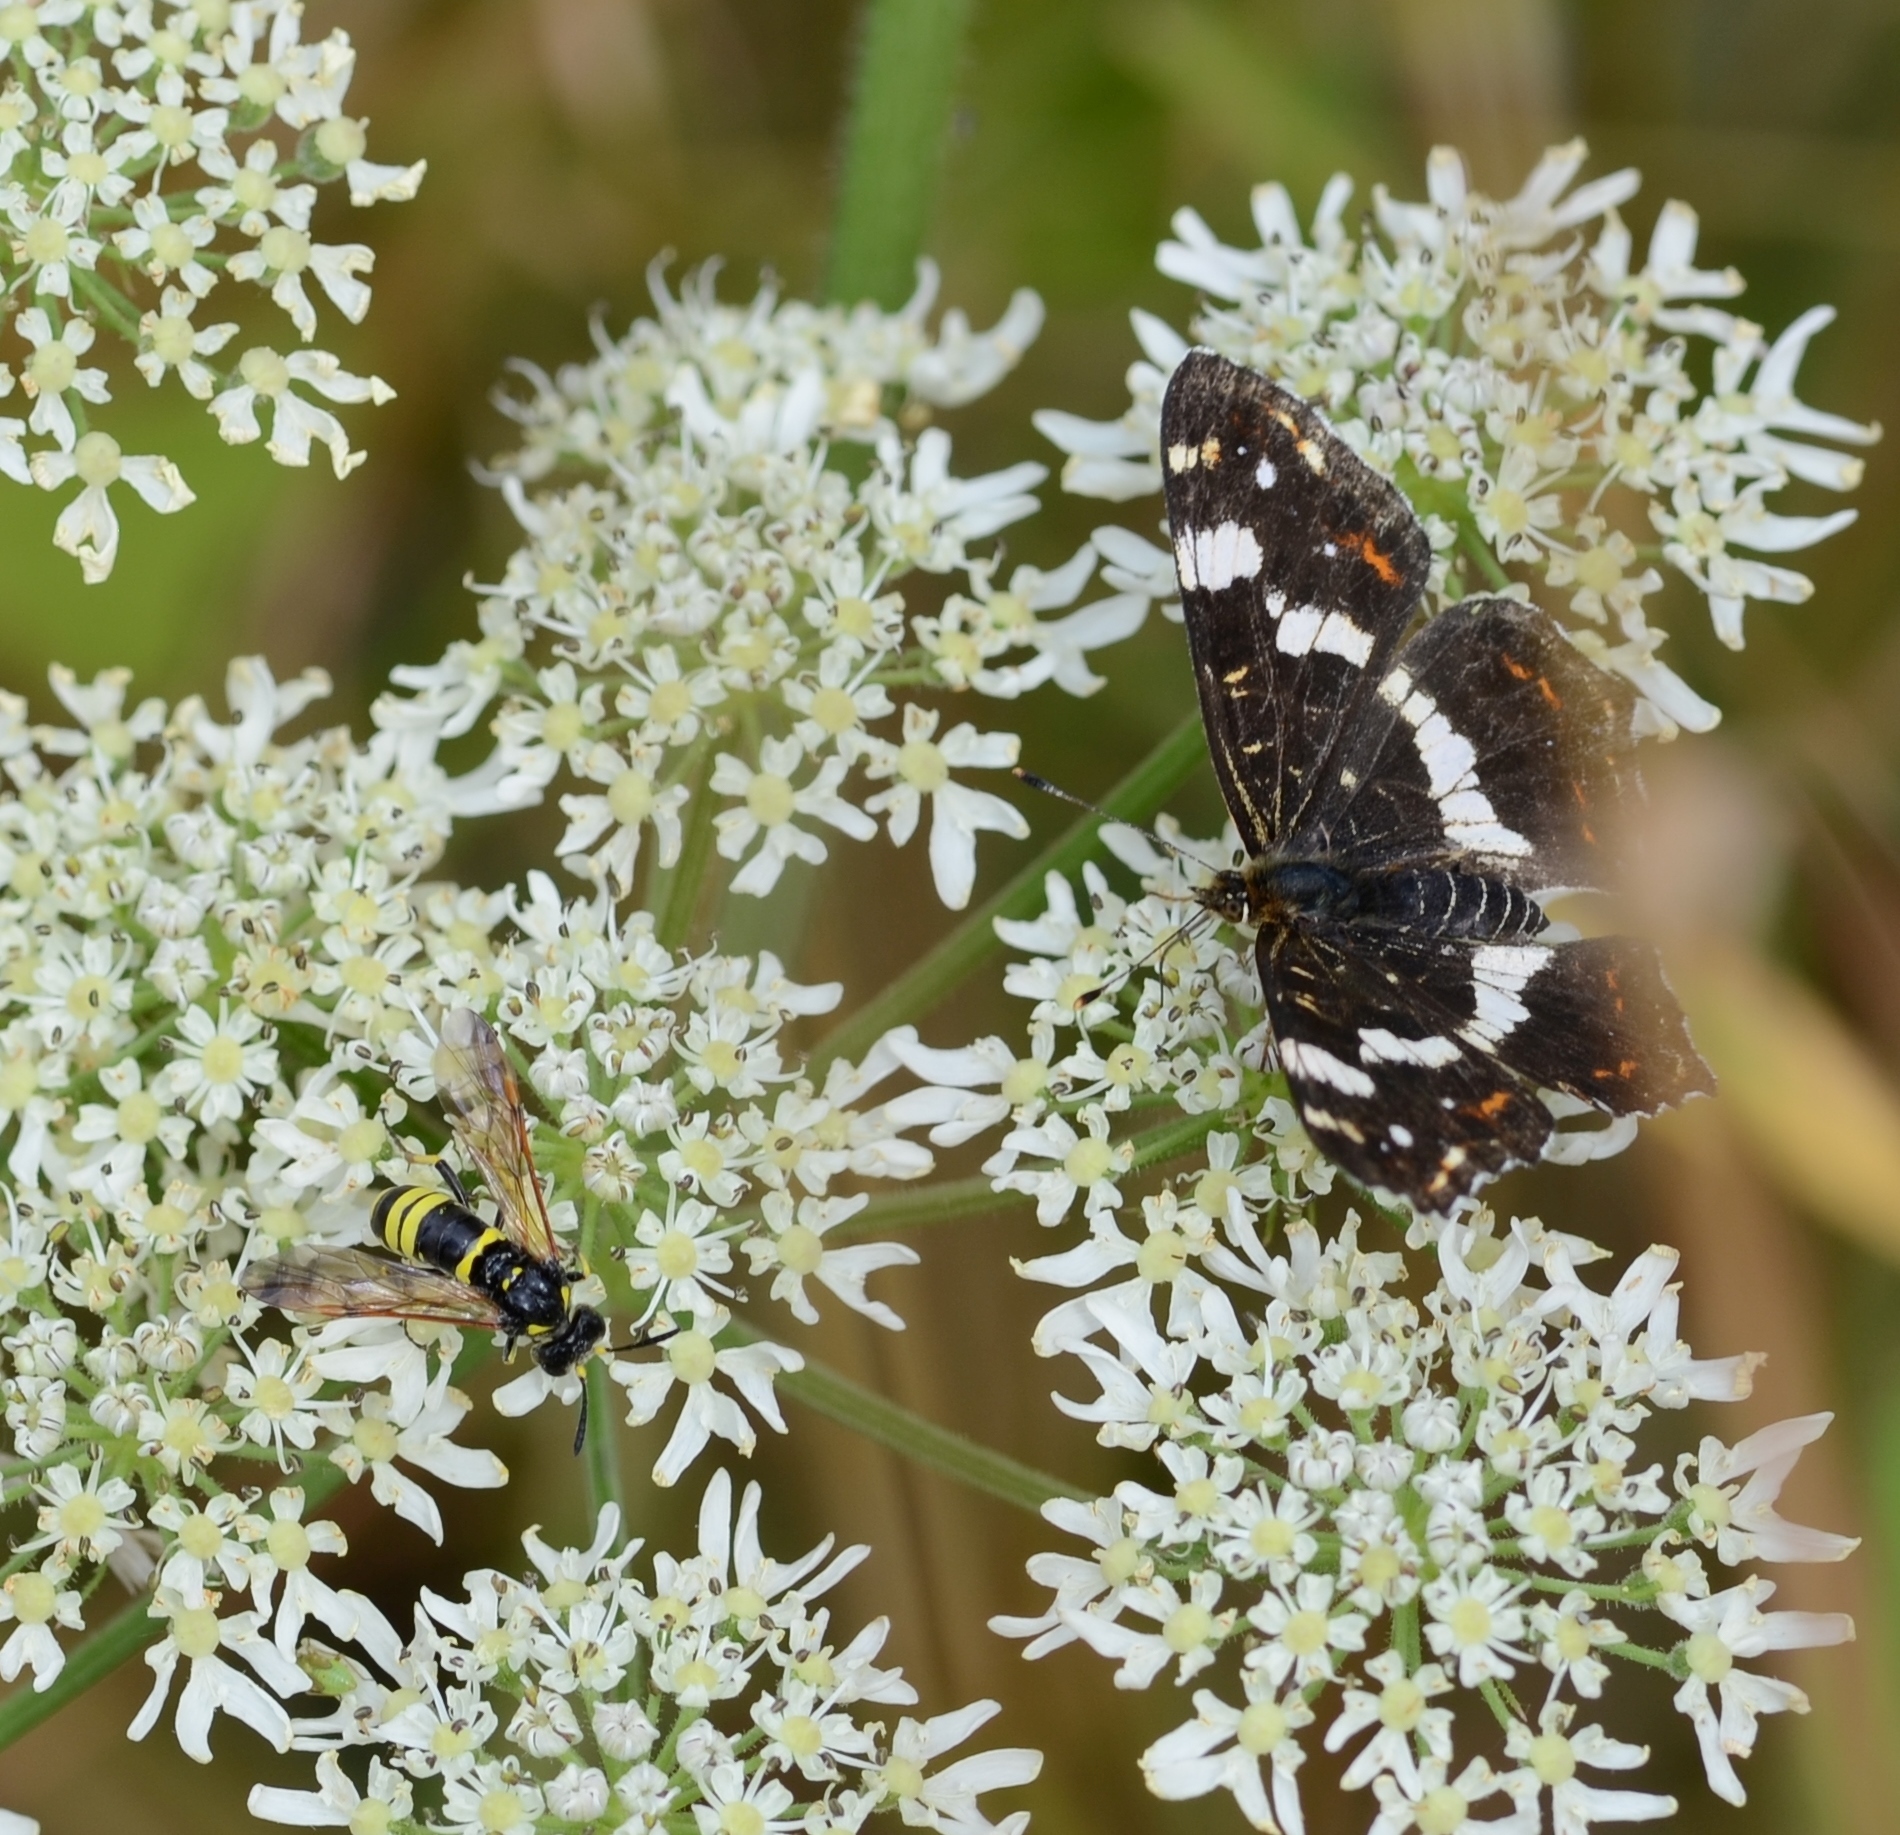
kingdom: Animalia
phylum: Arthropoda
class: Insecta
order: Lepidoptera
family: Nymphalidae
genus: Araschnia
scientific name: Araschnia levana
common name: Map butterfly
